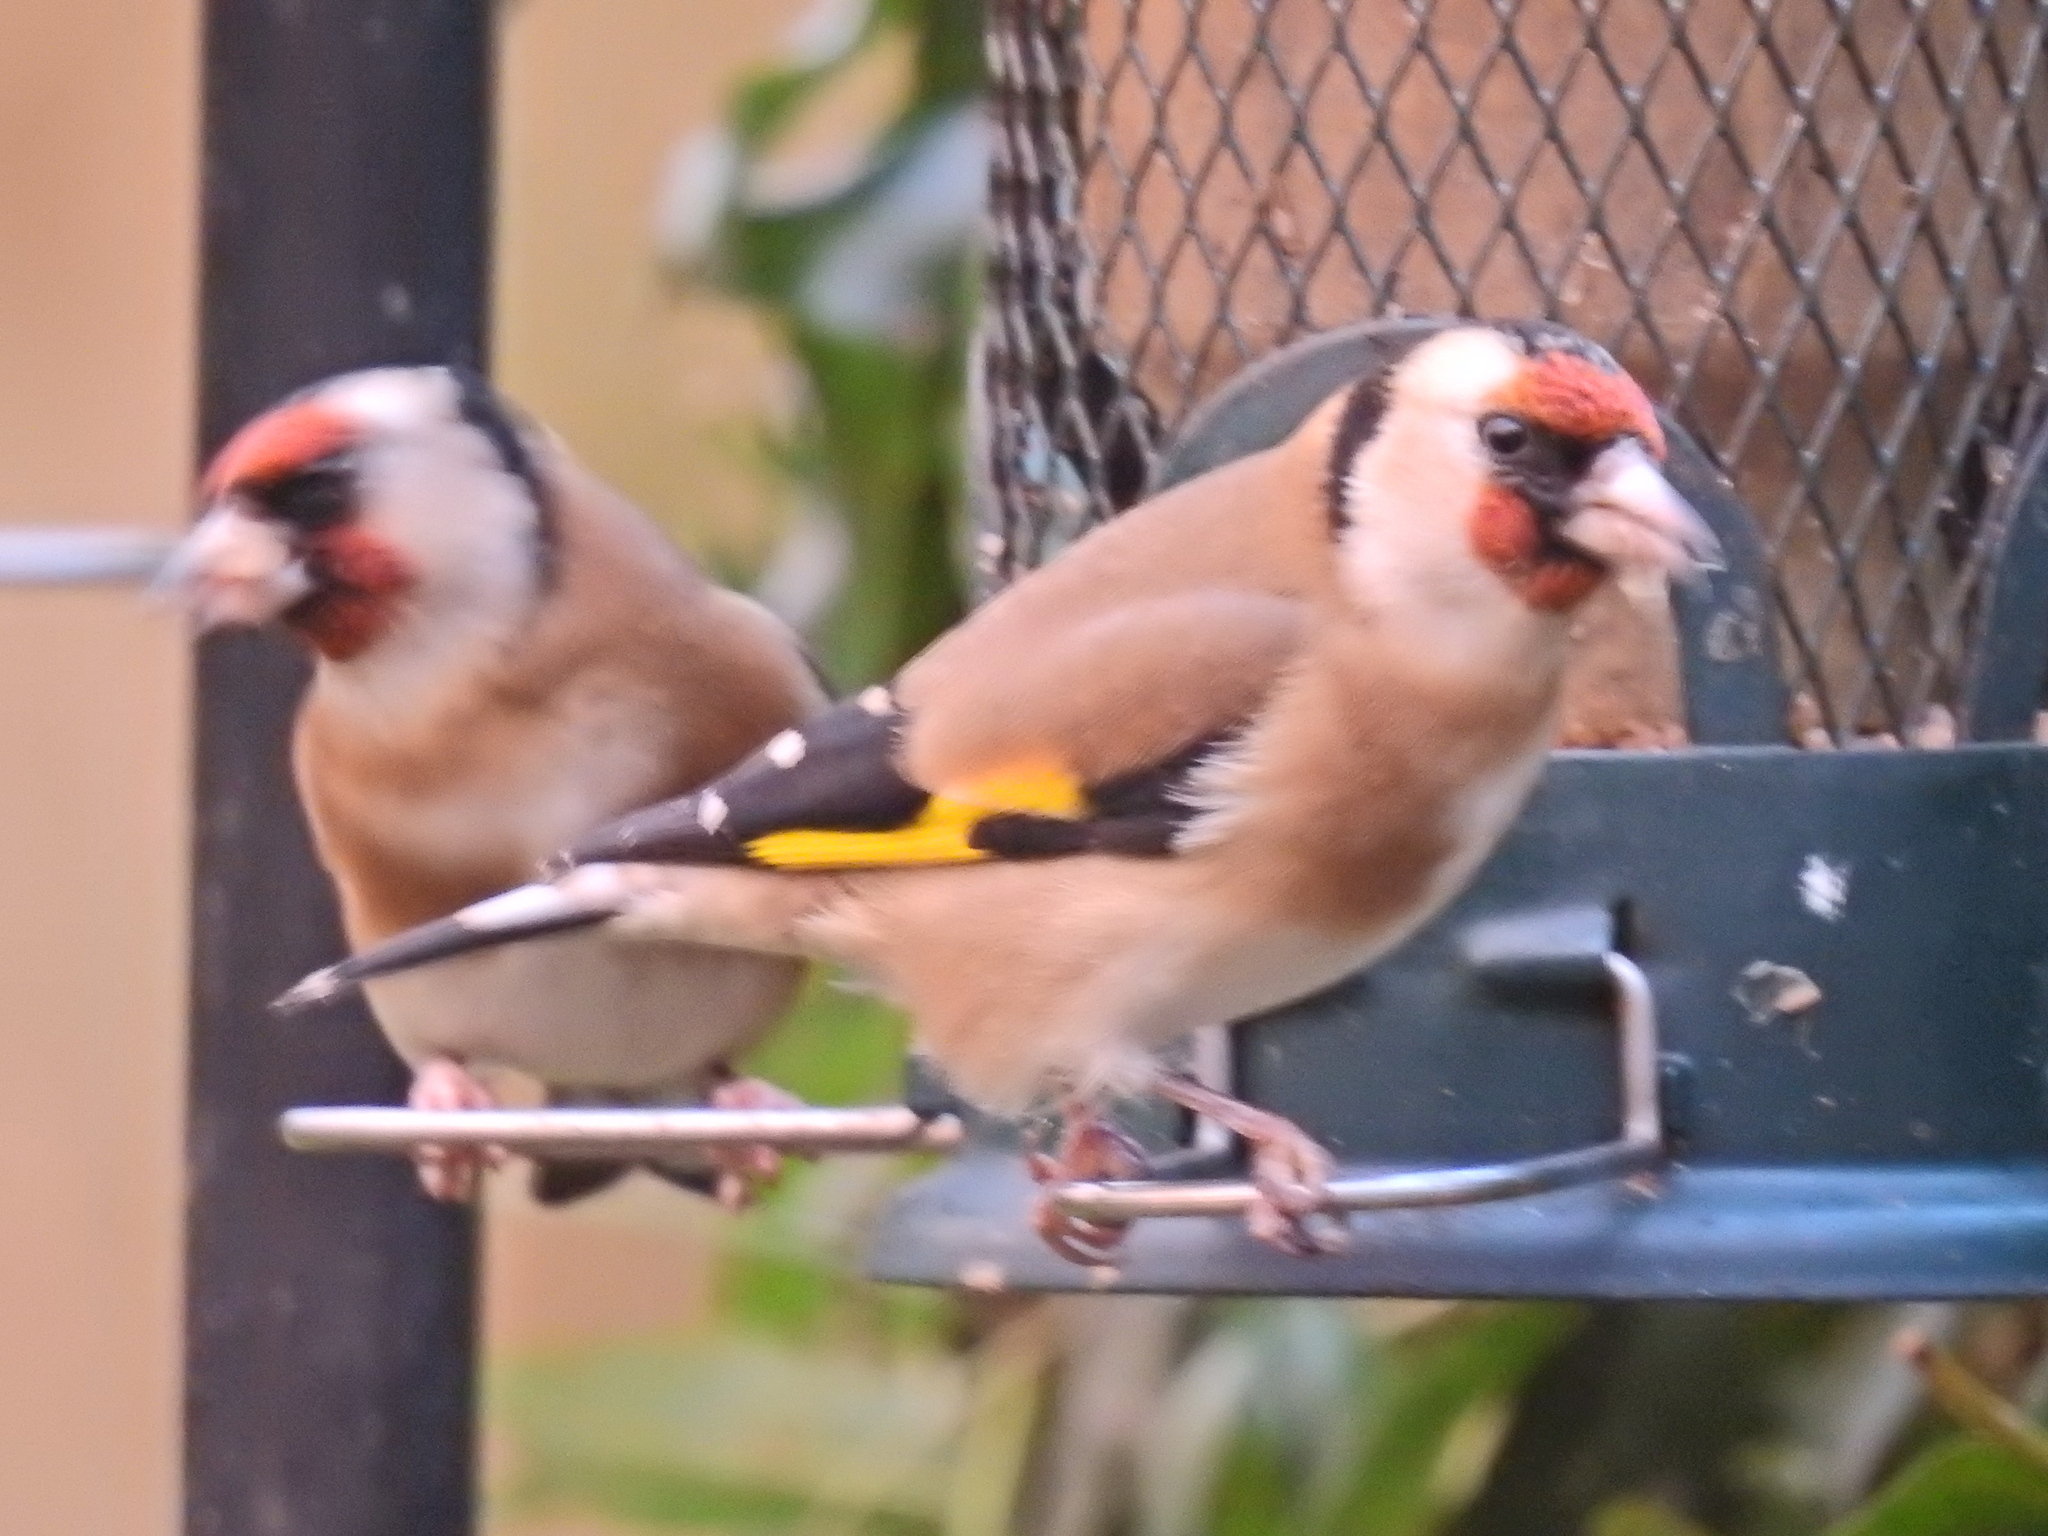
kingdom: Animalia
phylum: Chordata
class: Aves
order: Passeriformes
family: Fringillidae
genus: Carduelis
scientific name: Carduelis carduelis
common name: European goldfinch
